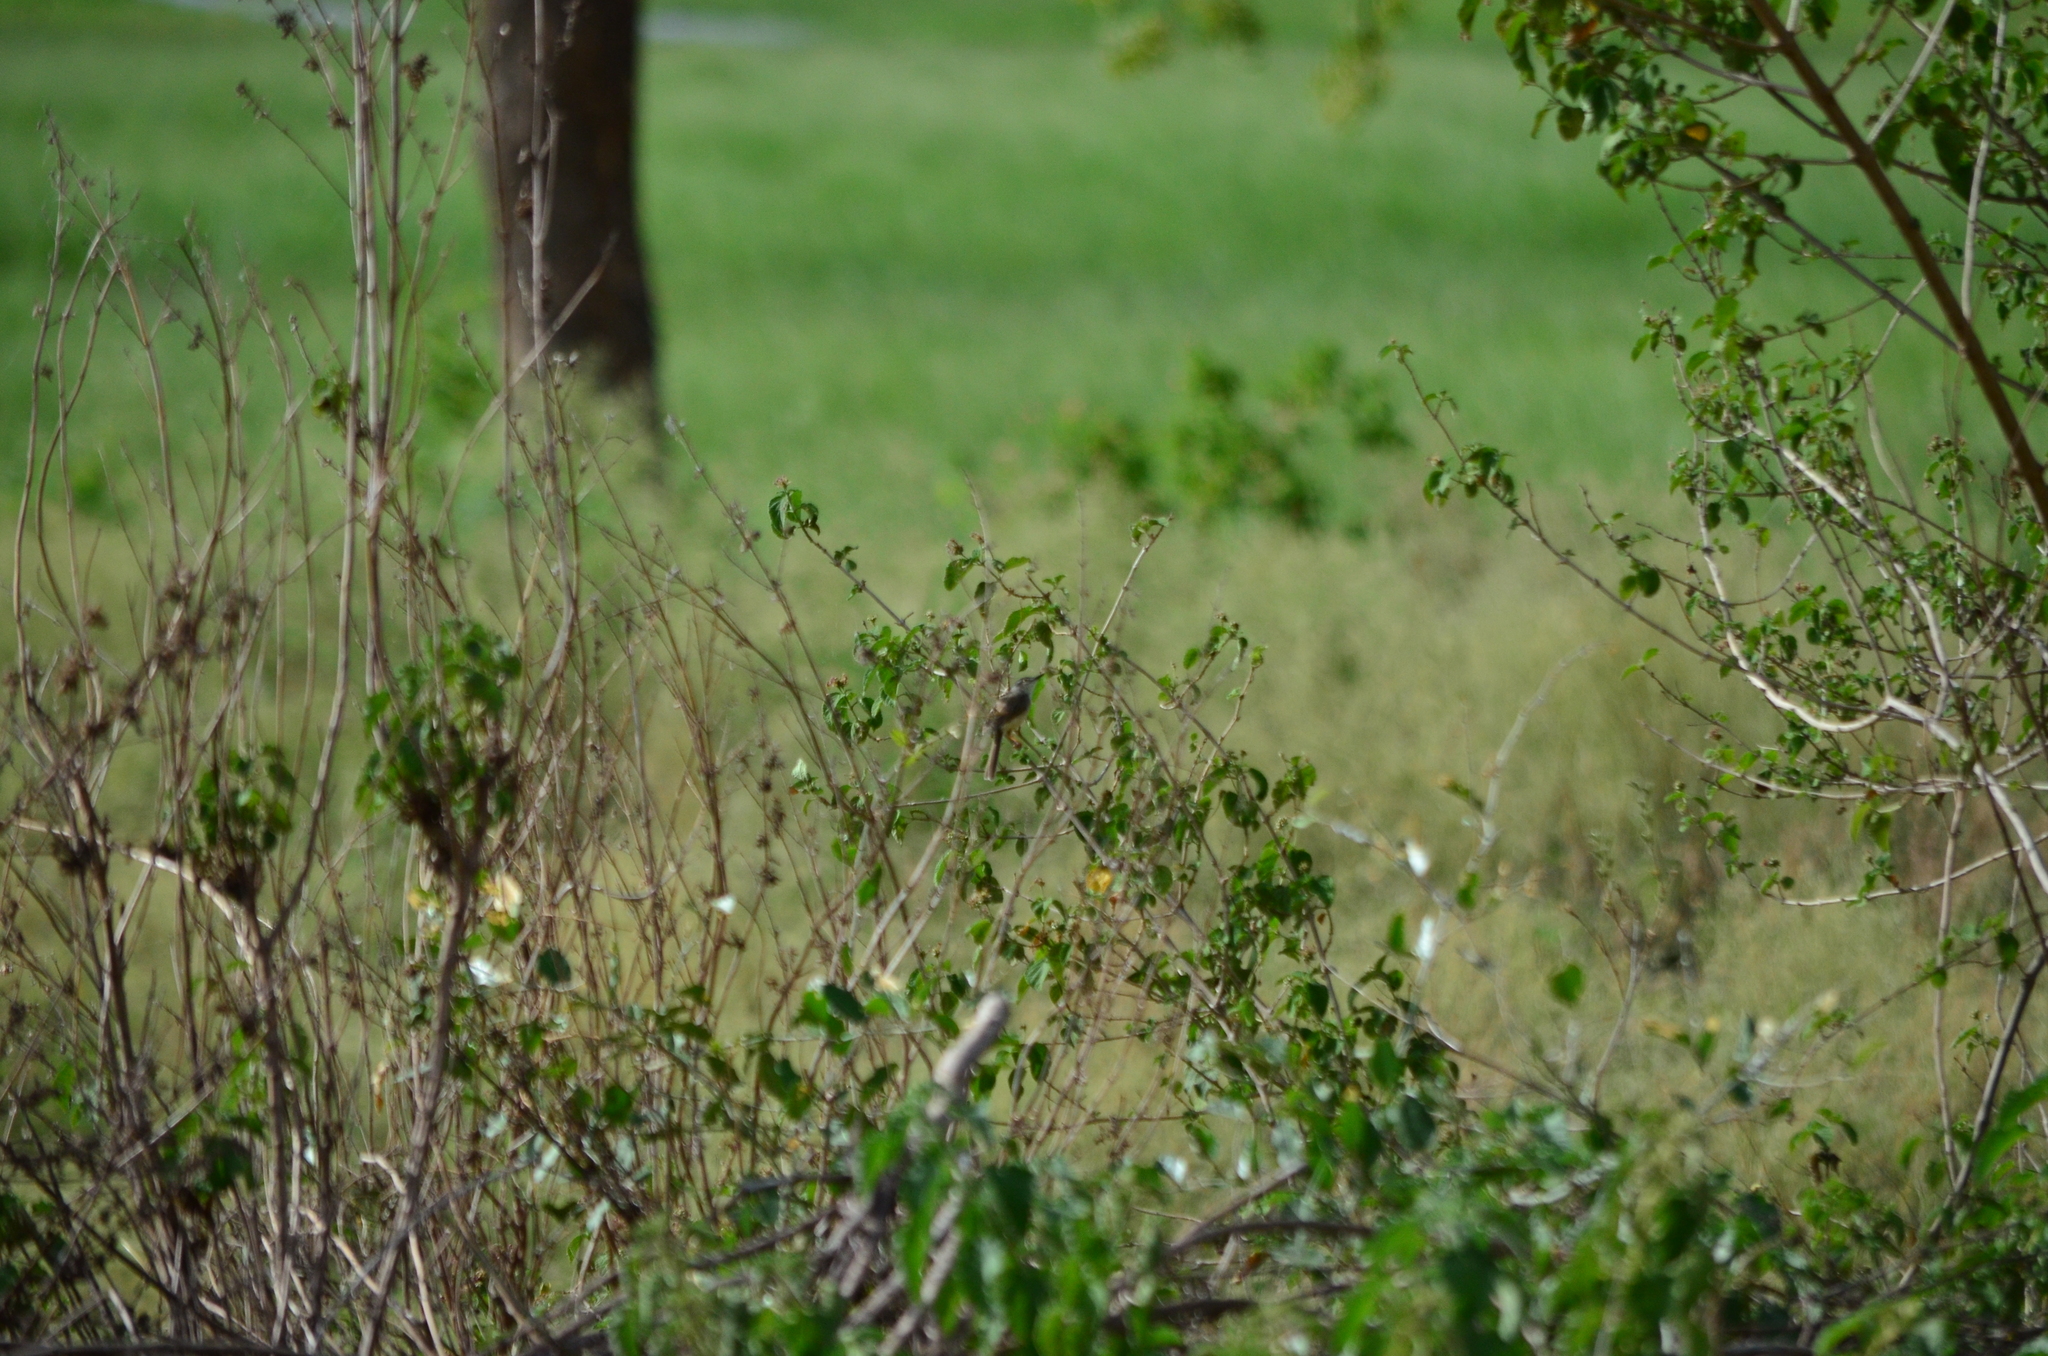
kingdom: Animalia
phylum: Chordata
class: Aves
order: Passeriformes
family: Cisticolidae
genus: Prinia
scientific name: Prinia inornata
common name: Plain prinia
